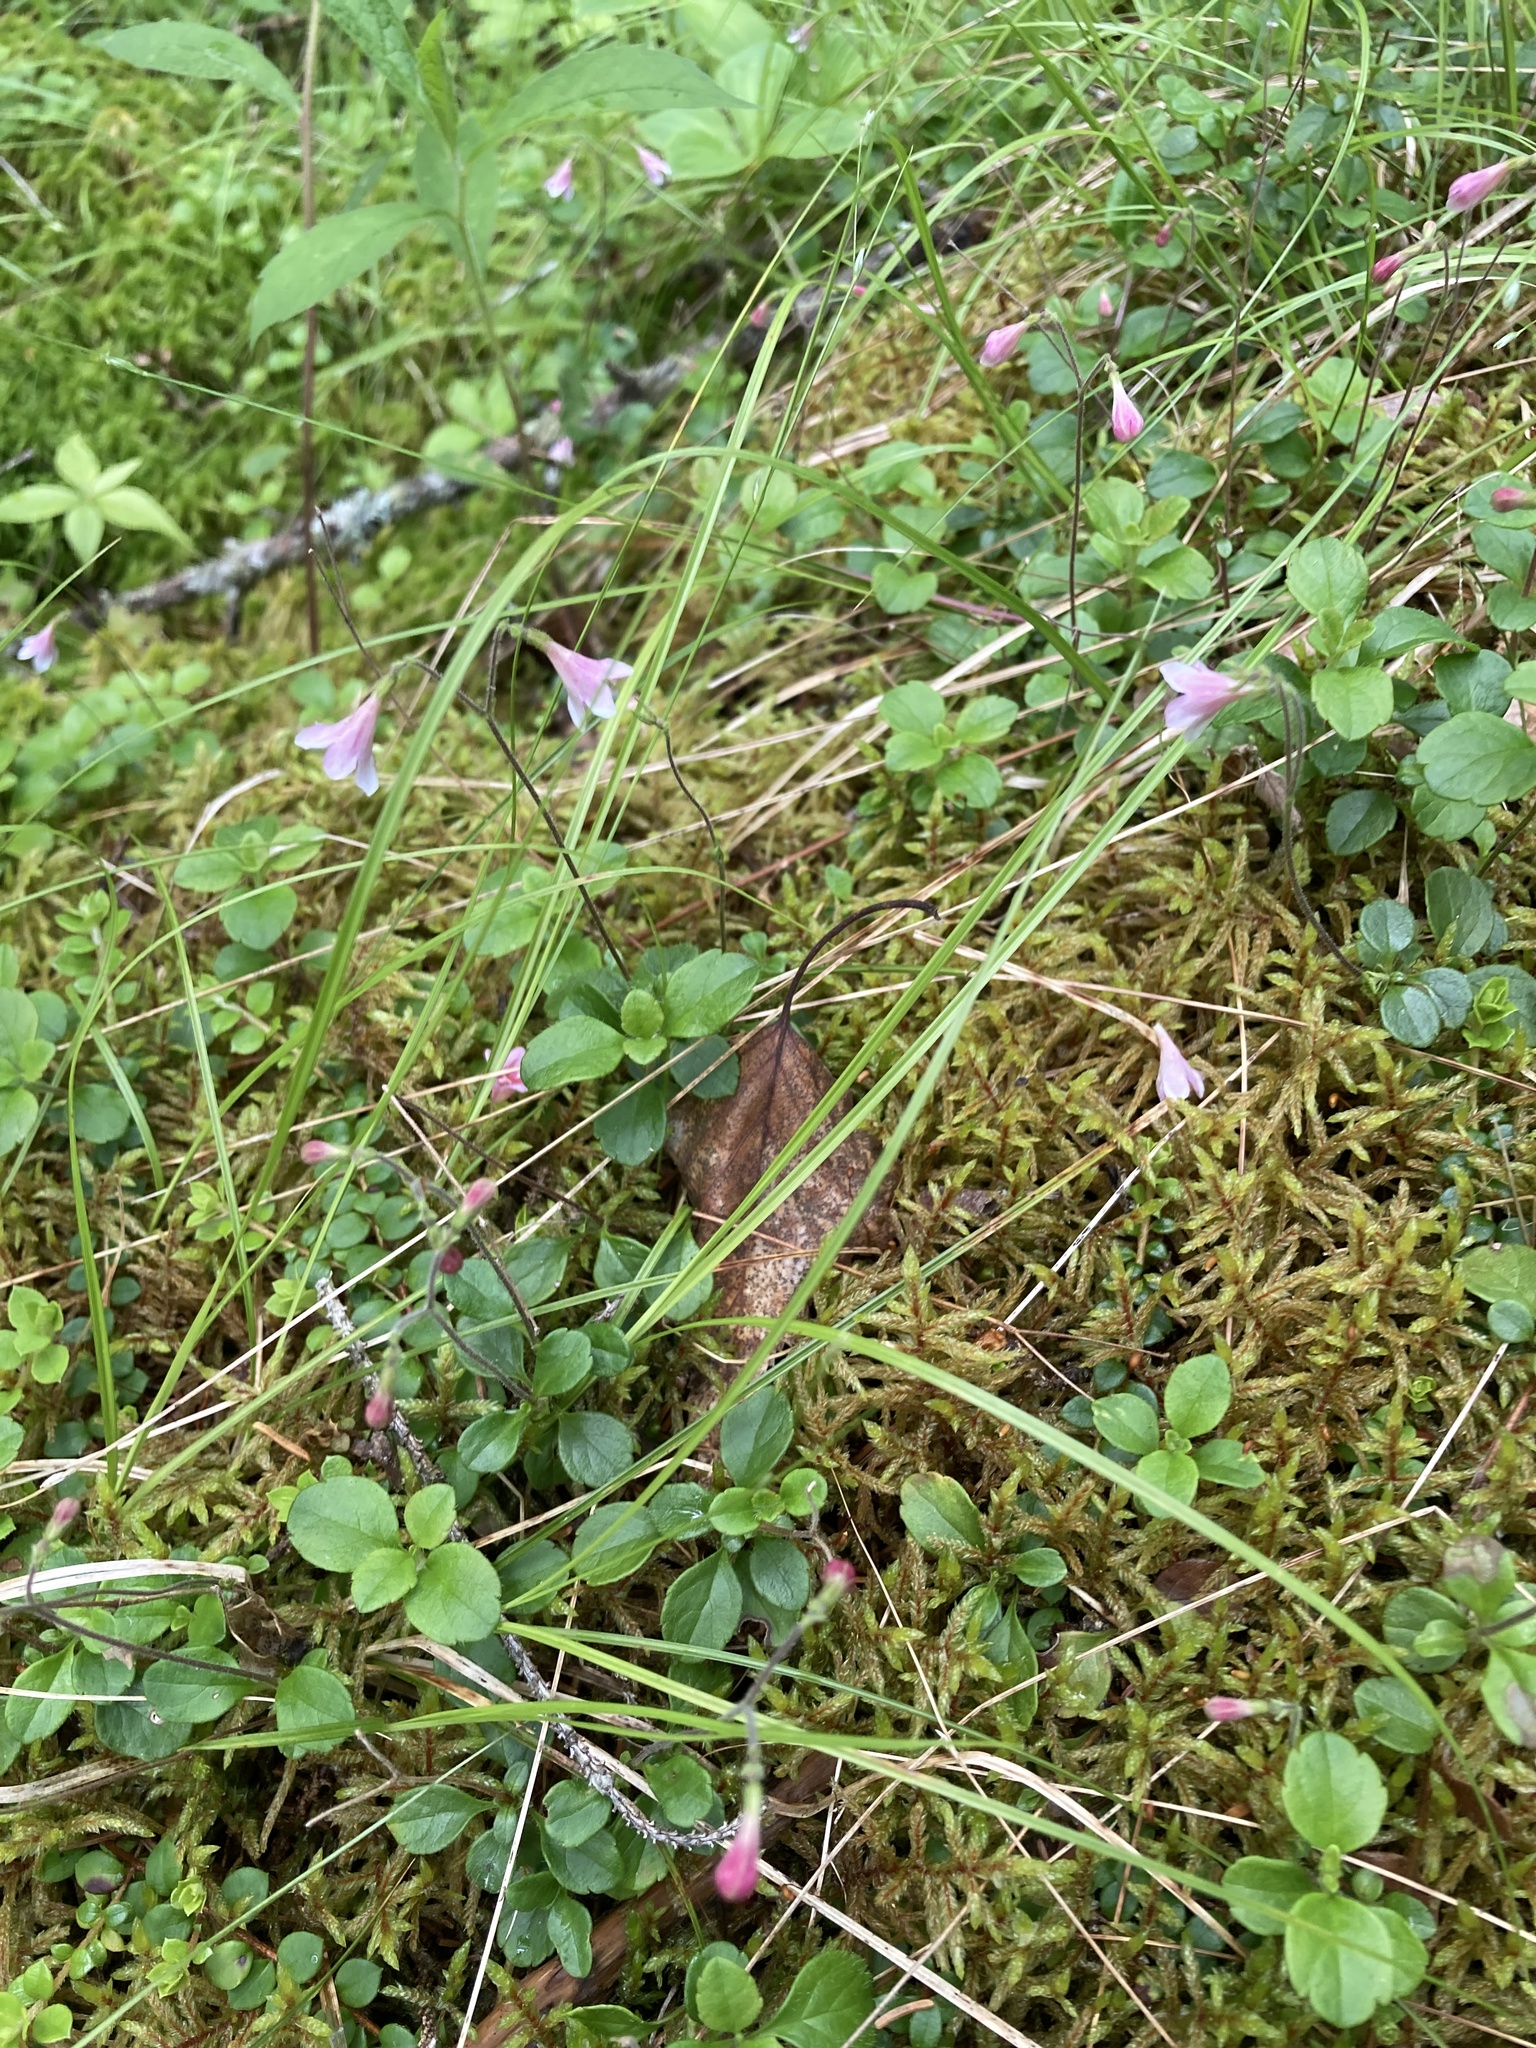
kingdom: Plantae
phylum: Tracheophyta
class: Magnoliopsida
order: Dipsacales
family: Caprifoliaceae
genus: Linnaea
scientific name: Linnaea borealis
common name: Twinflower
